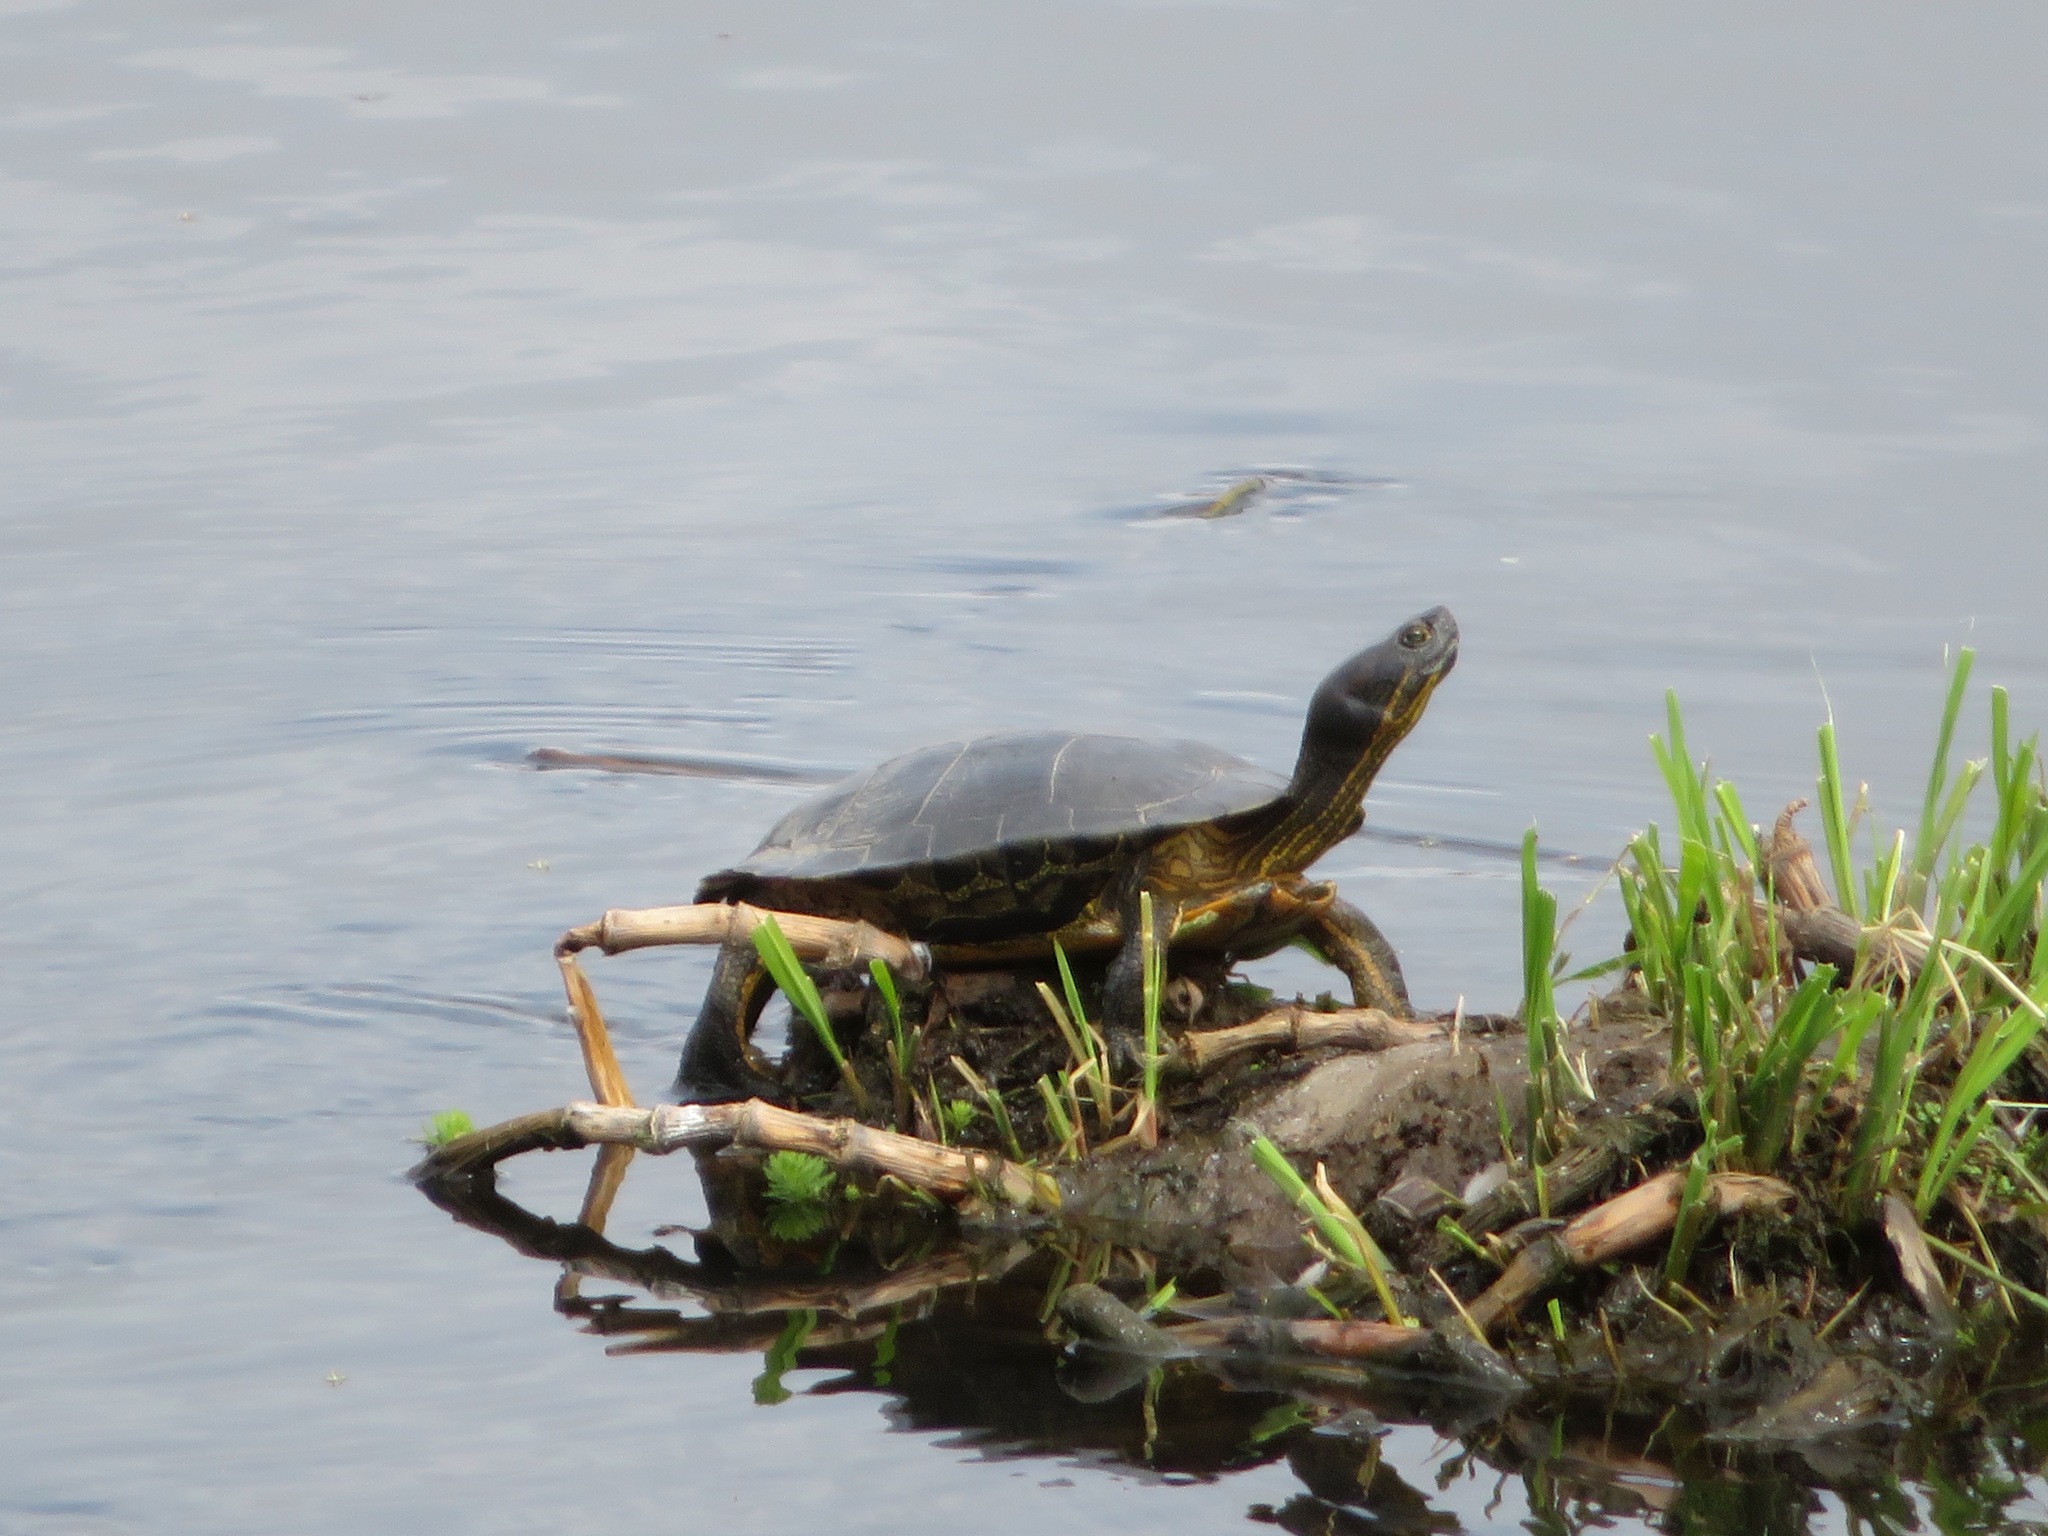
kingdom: Animalia
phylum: Chordata
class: Testudines
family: Emydidae
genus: Trachemys
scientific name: Trachemys scripta
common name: Slider
